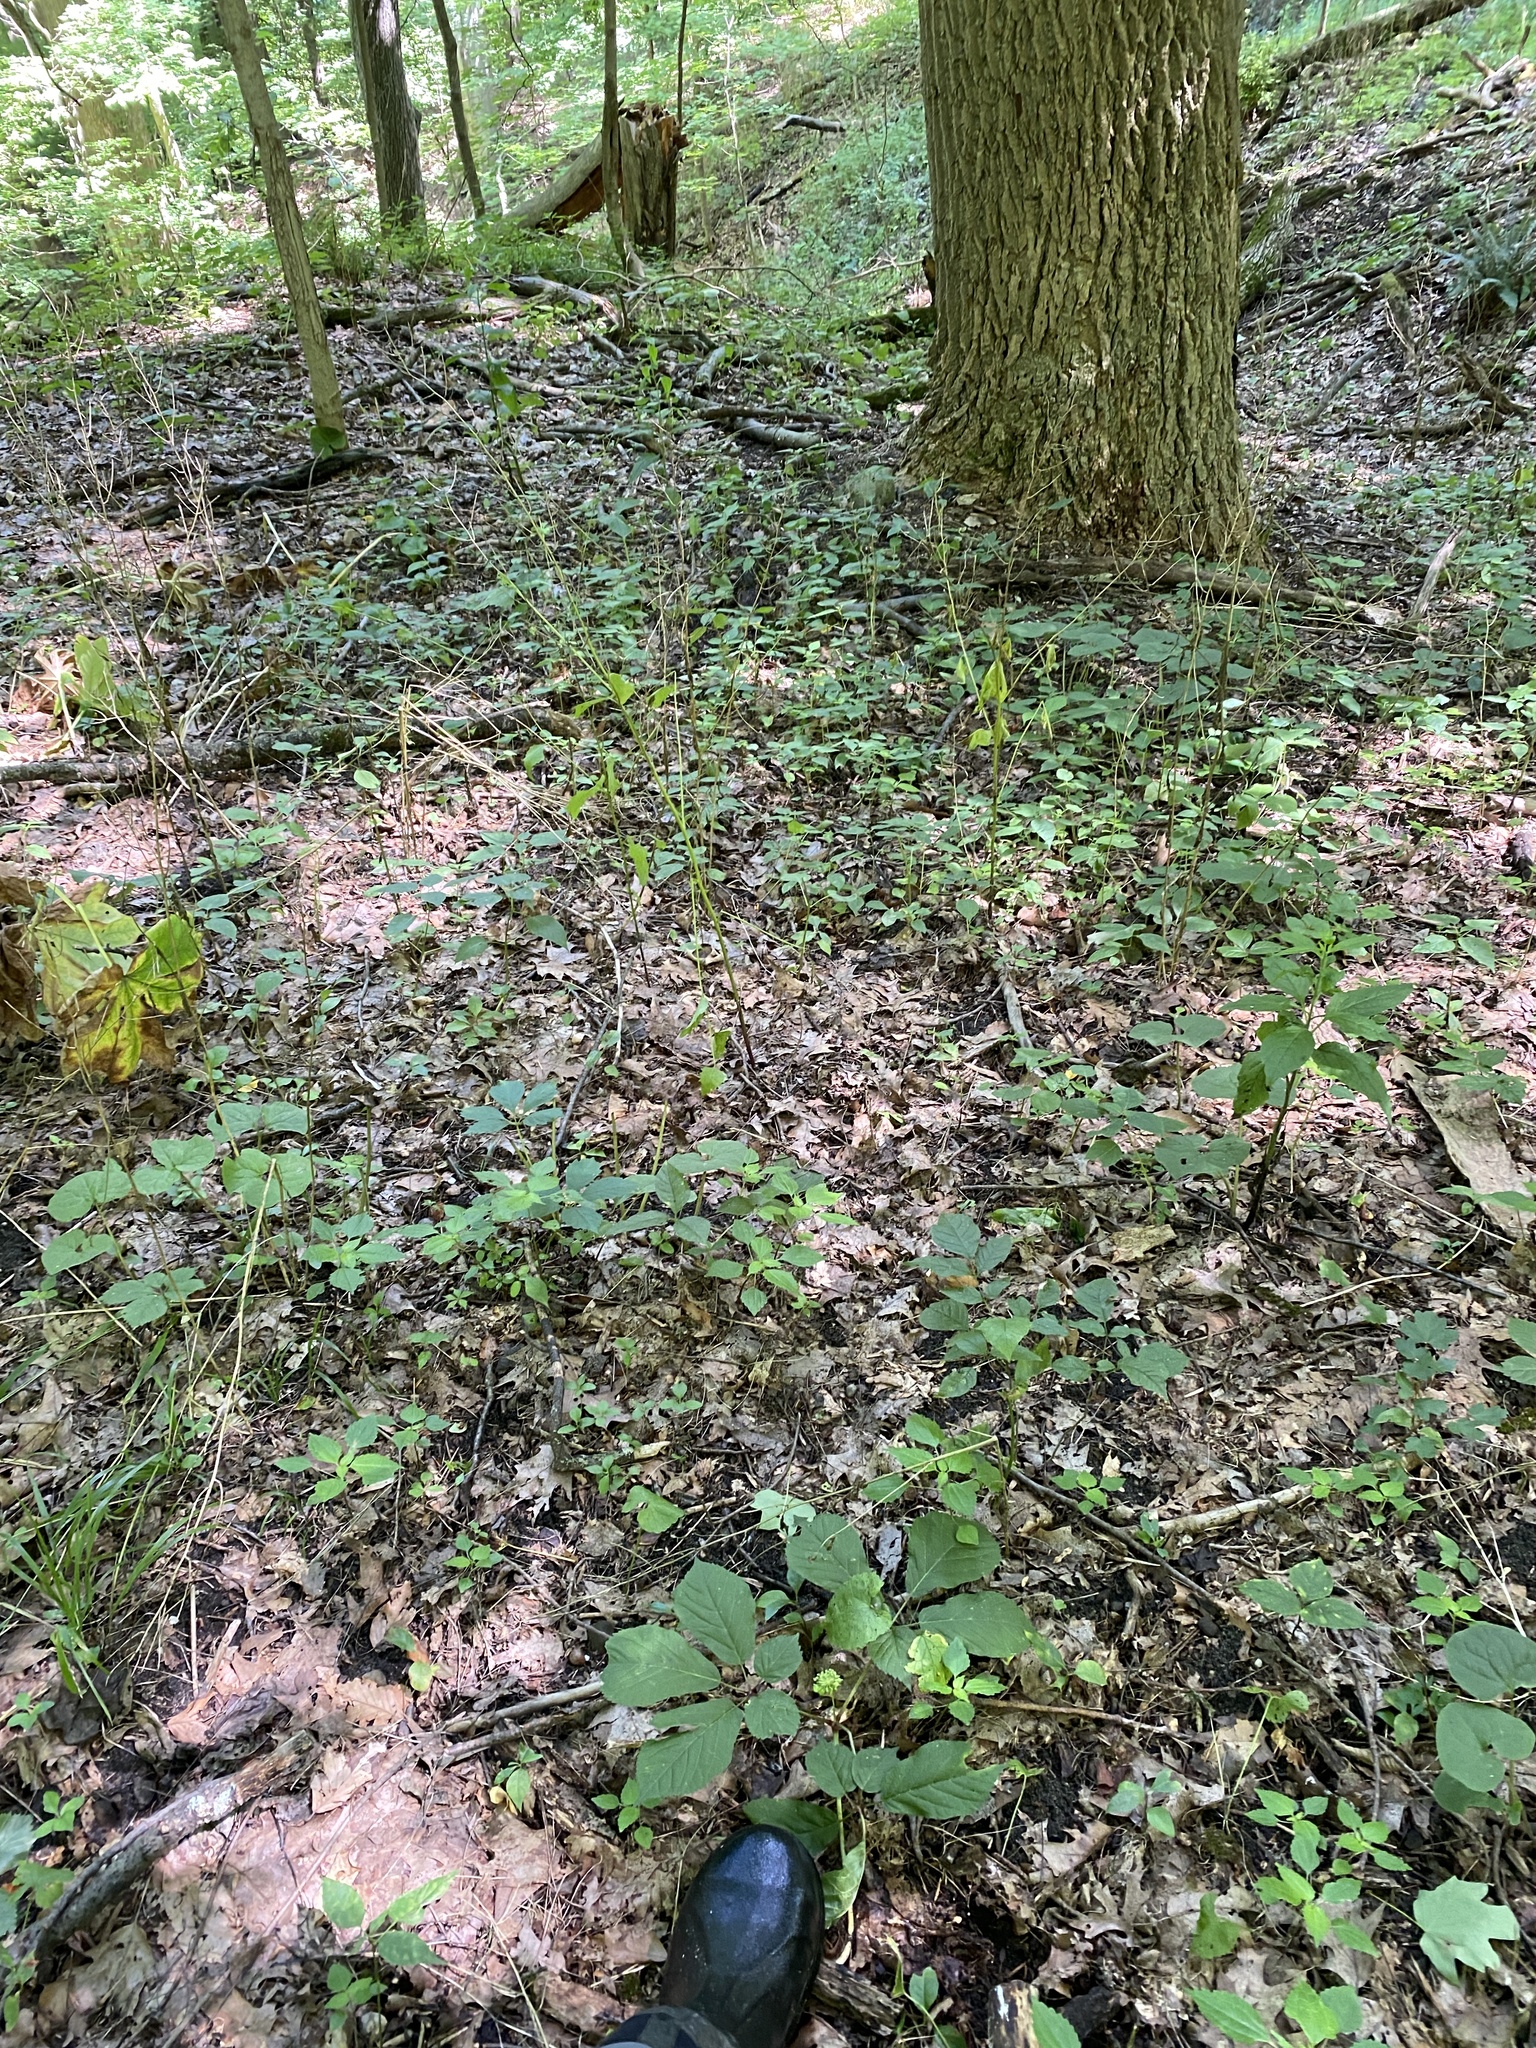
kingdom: Plantae
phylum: Tracheophyta
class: Magnoliopsida
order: Apiales
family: Araliaceae
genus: Panax
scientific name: Panax quinquefolius
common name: American ginseng
